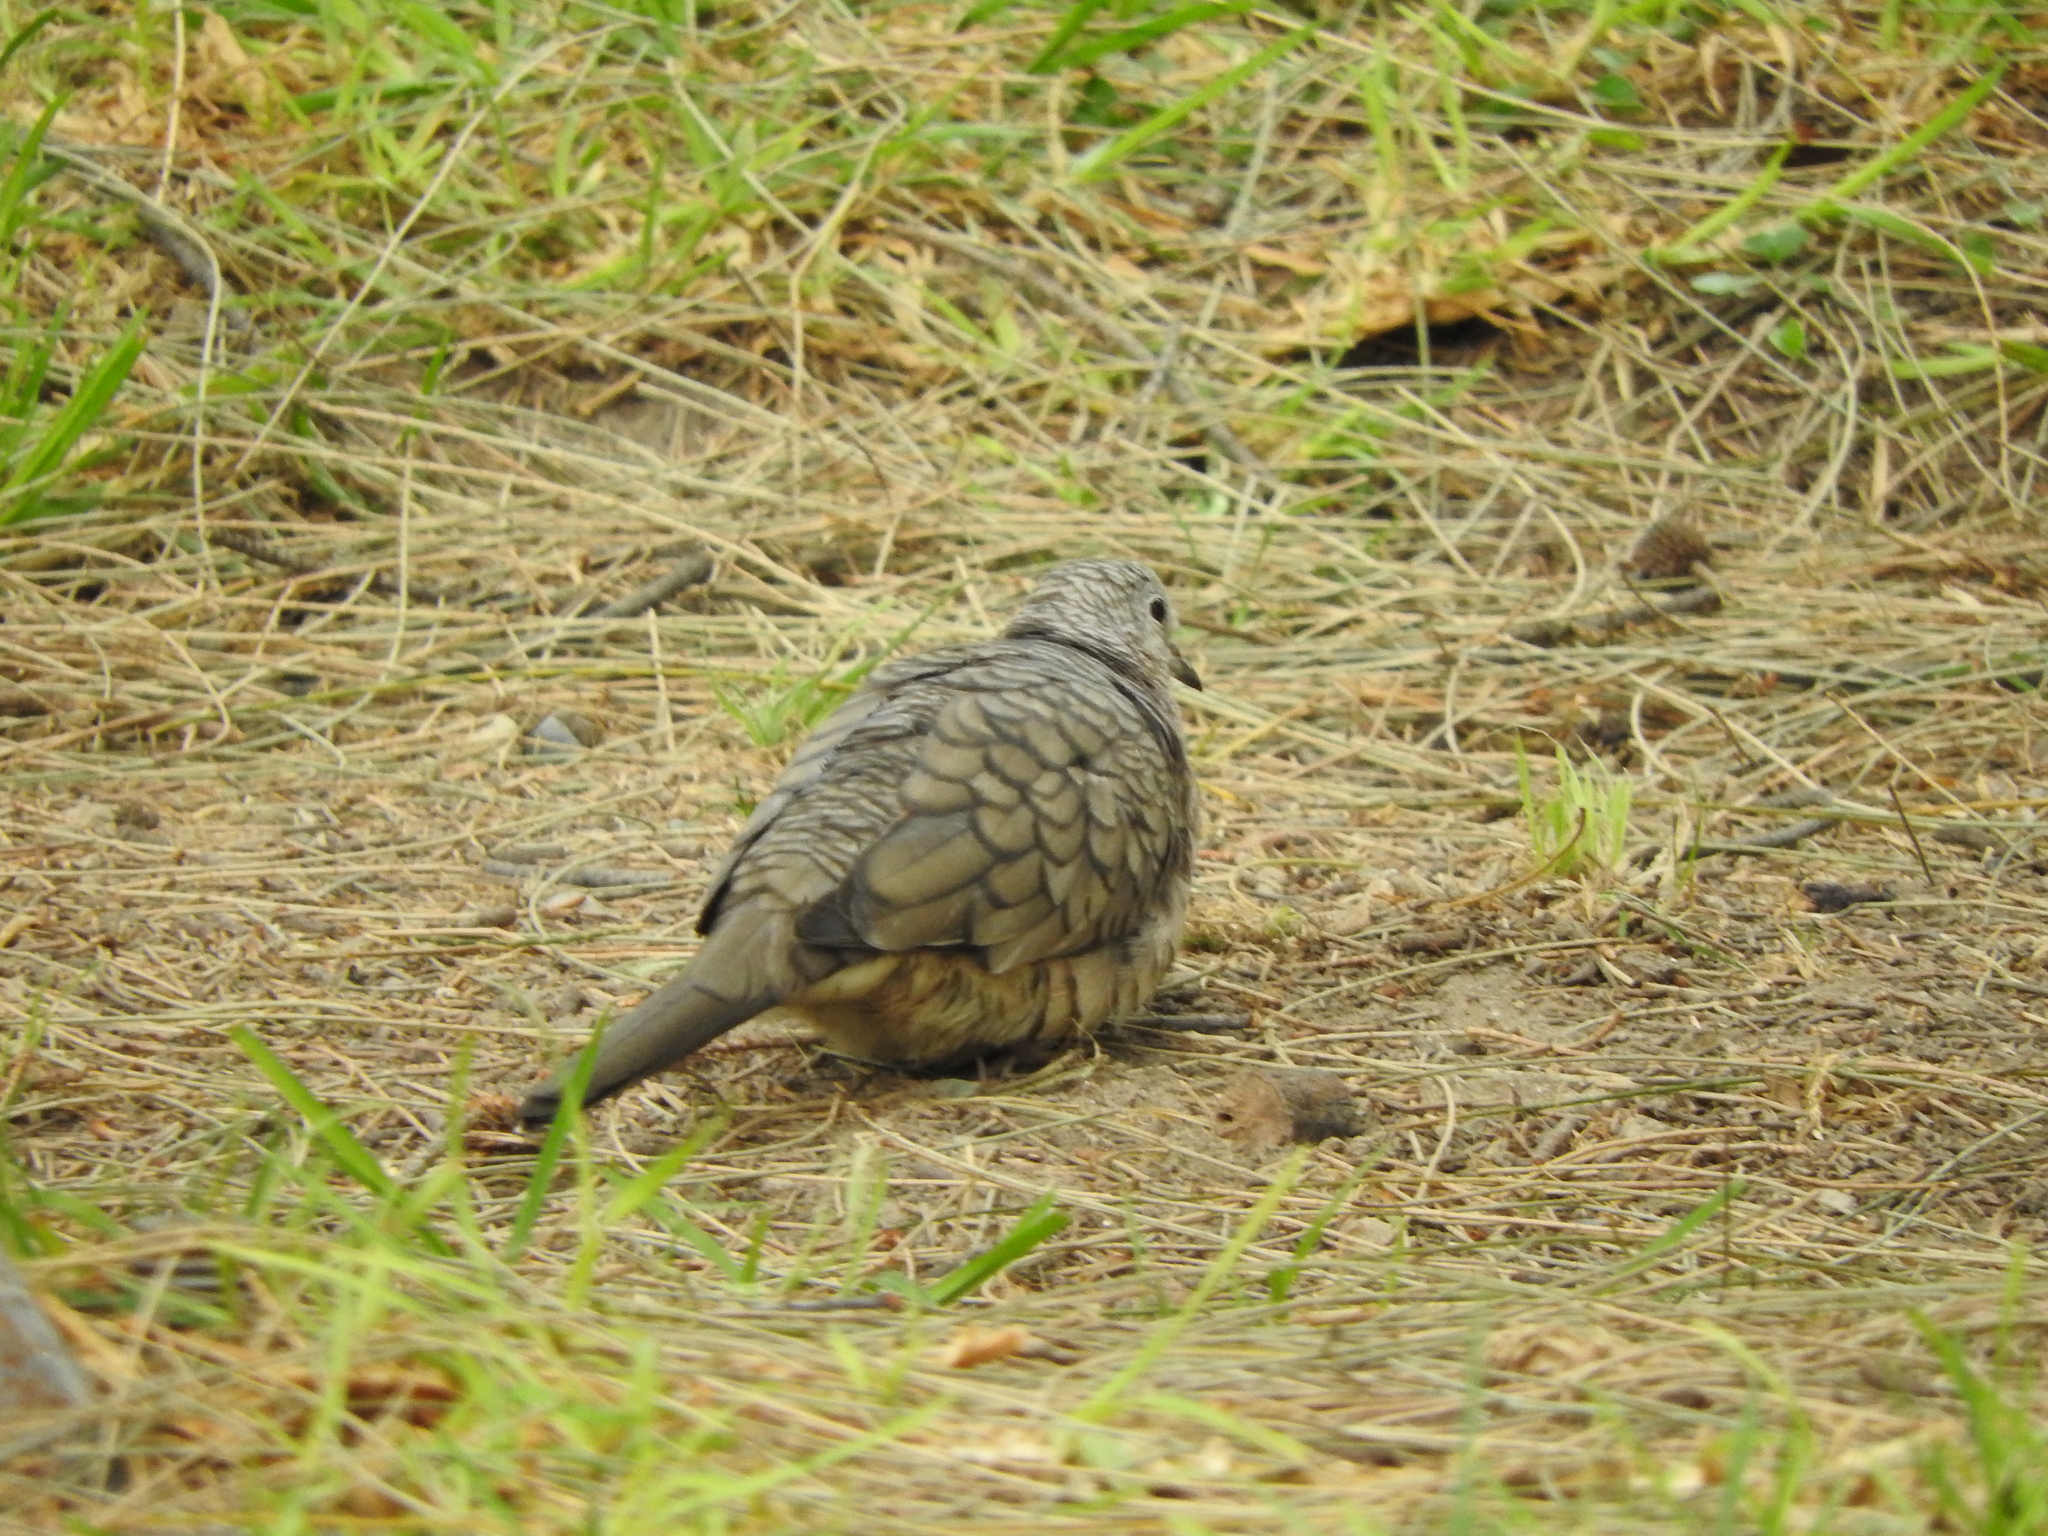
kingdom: Animalia
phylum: Chordata
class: Aves
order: Columbiformes
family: Columbidae
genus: Columbina
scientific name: Columbina inca
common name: Inca dove
